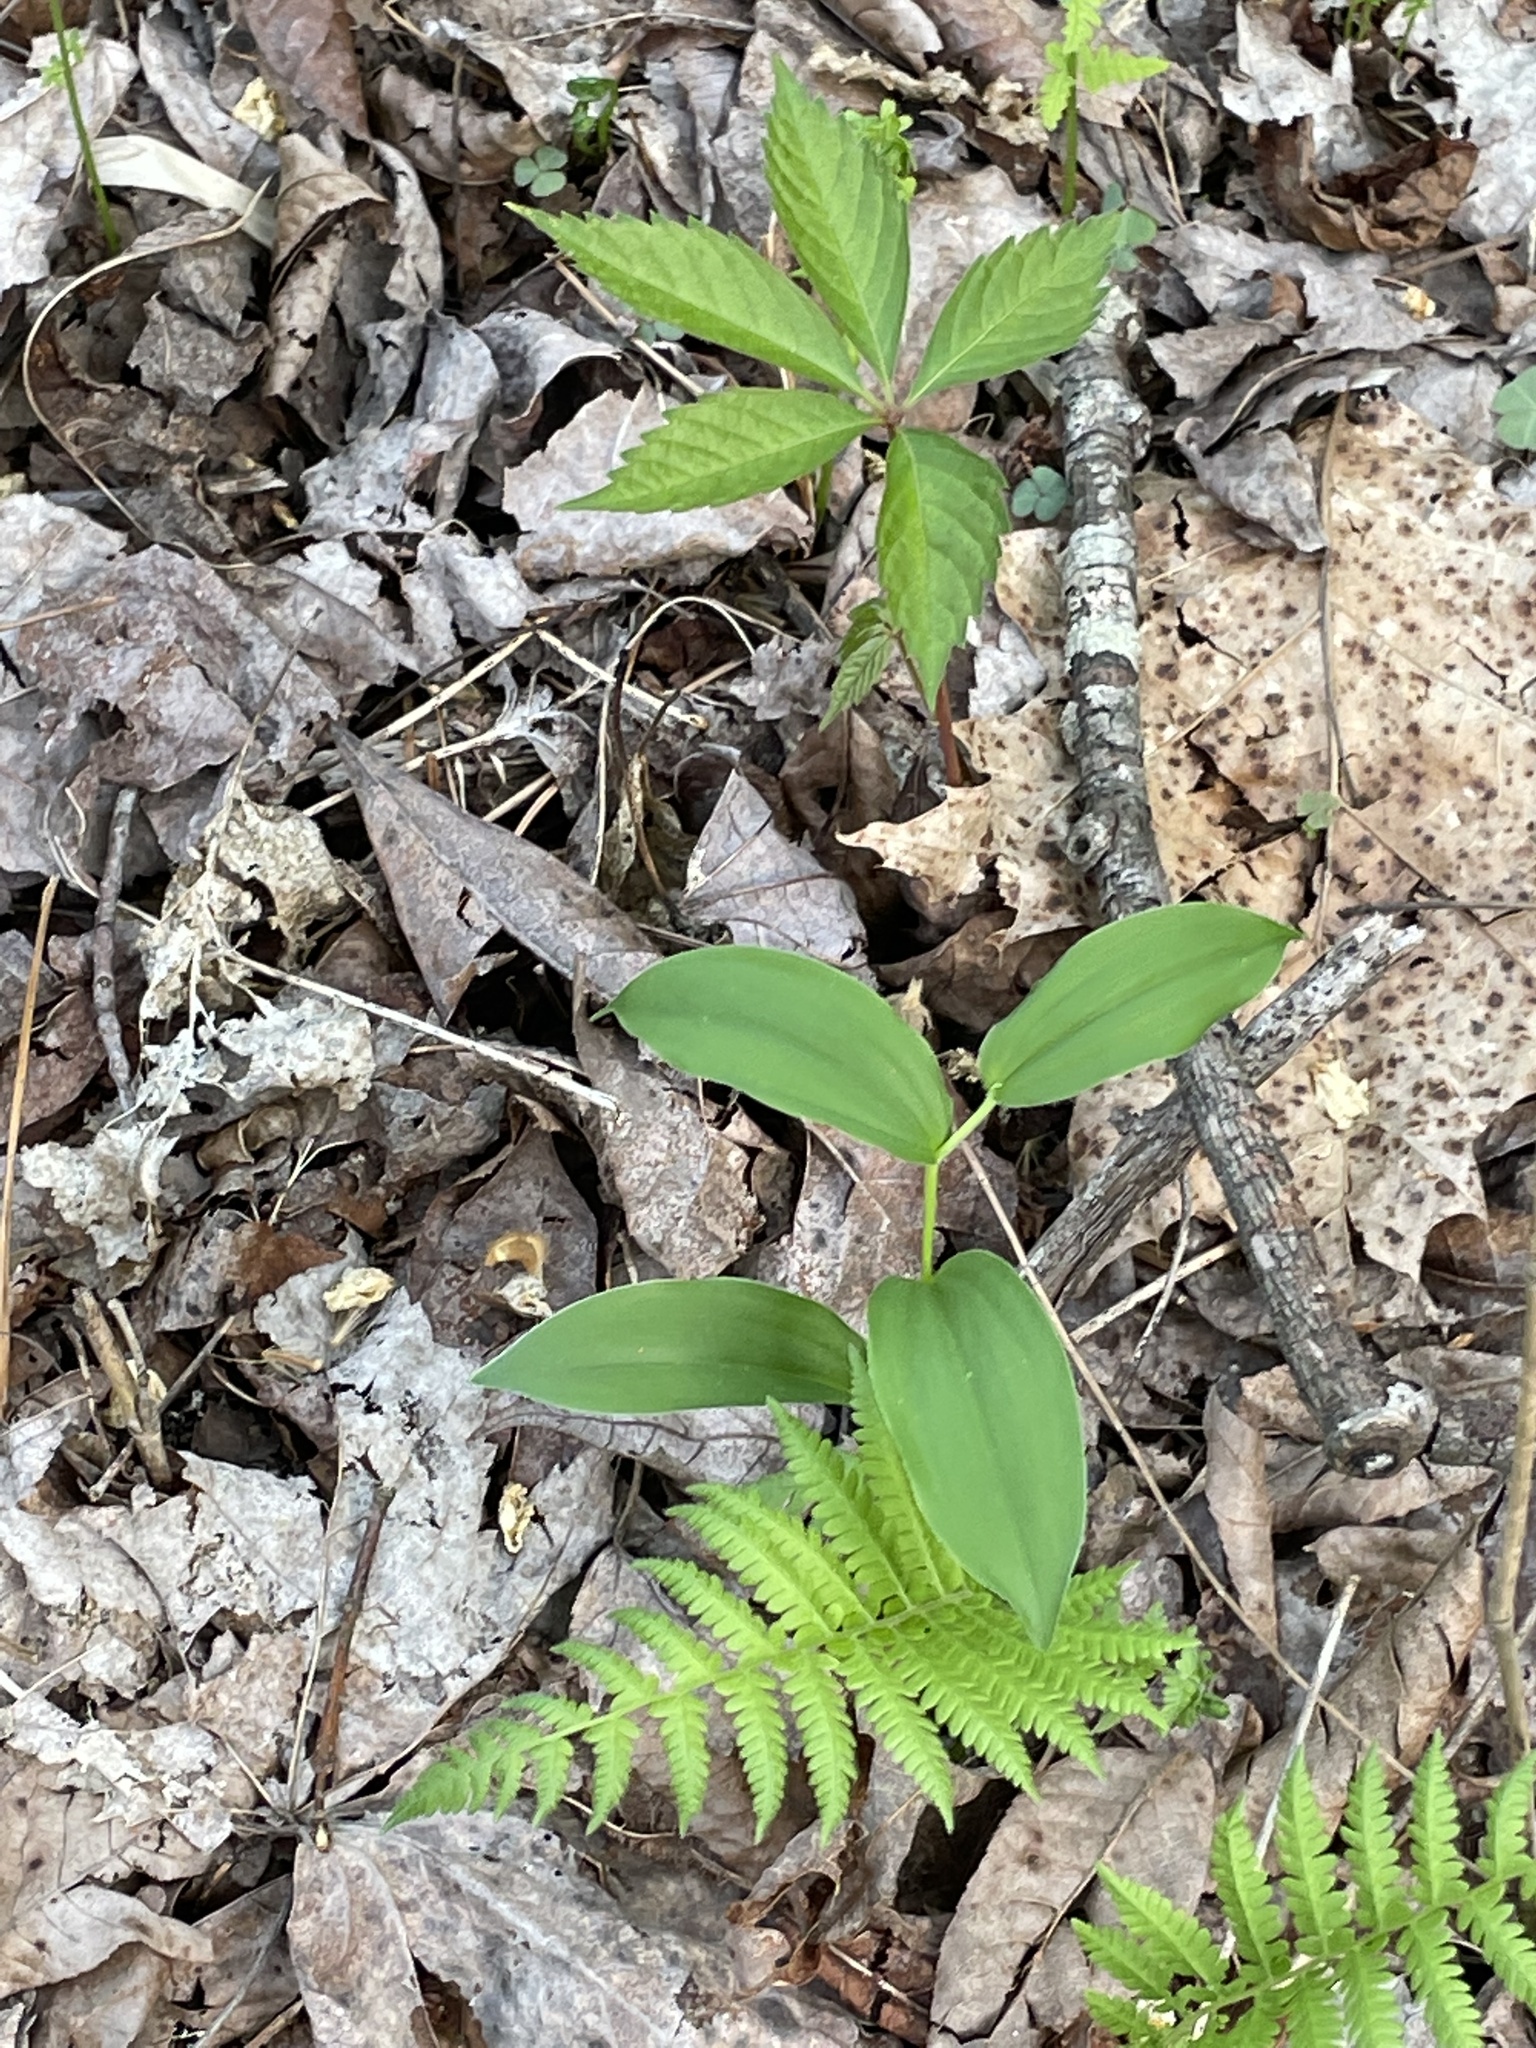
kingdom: Plantae
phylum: Tracheophyta
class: Liliopsida
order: Asparagales
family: Asparagaceae
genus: Maianthemum
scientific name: Maianthemum racemosum
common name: False spikenard
